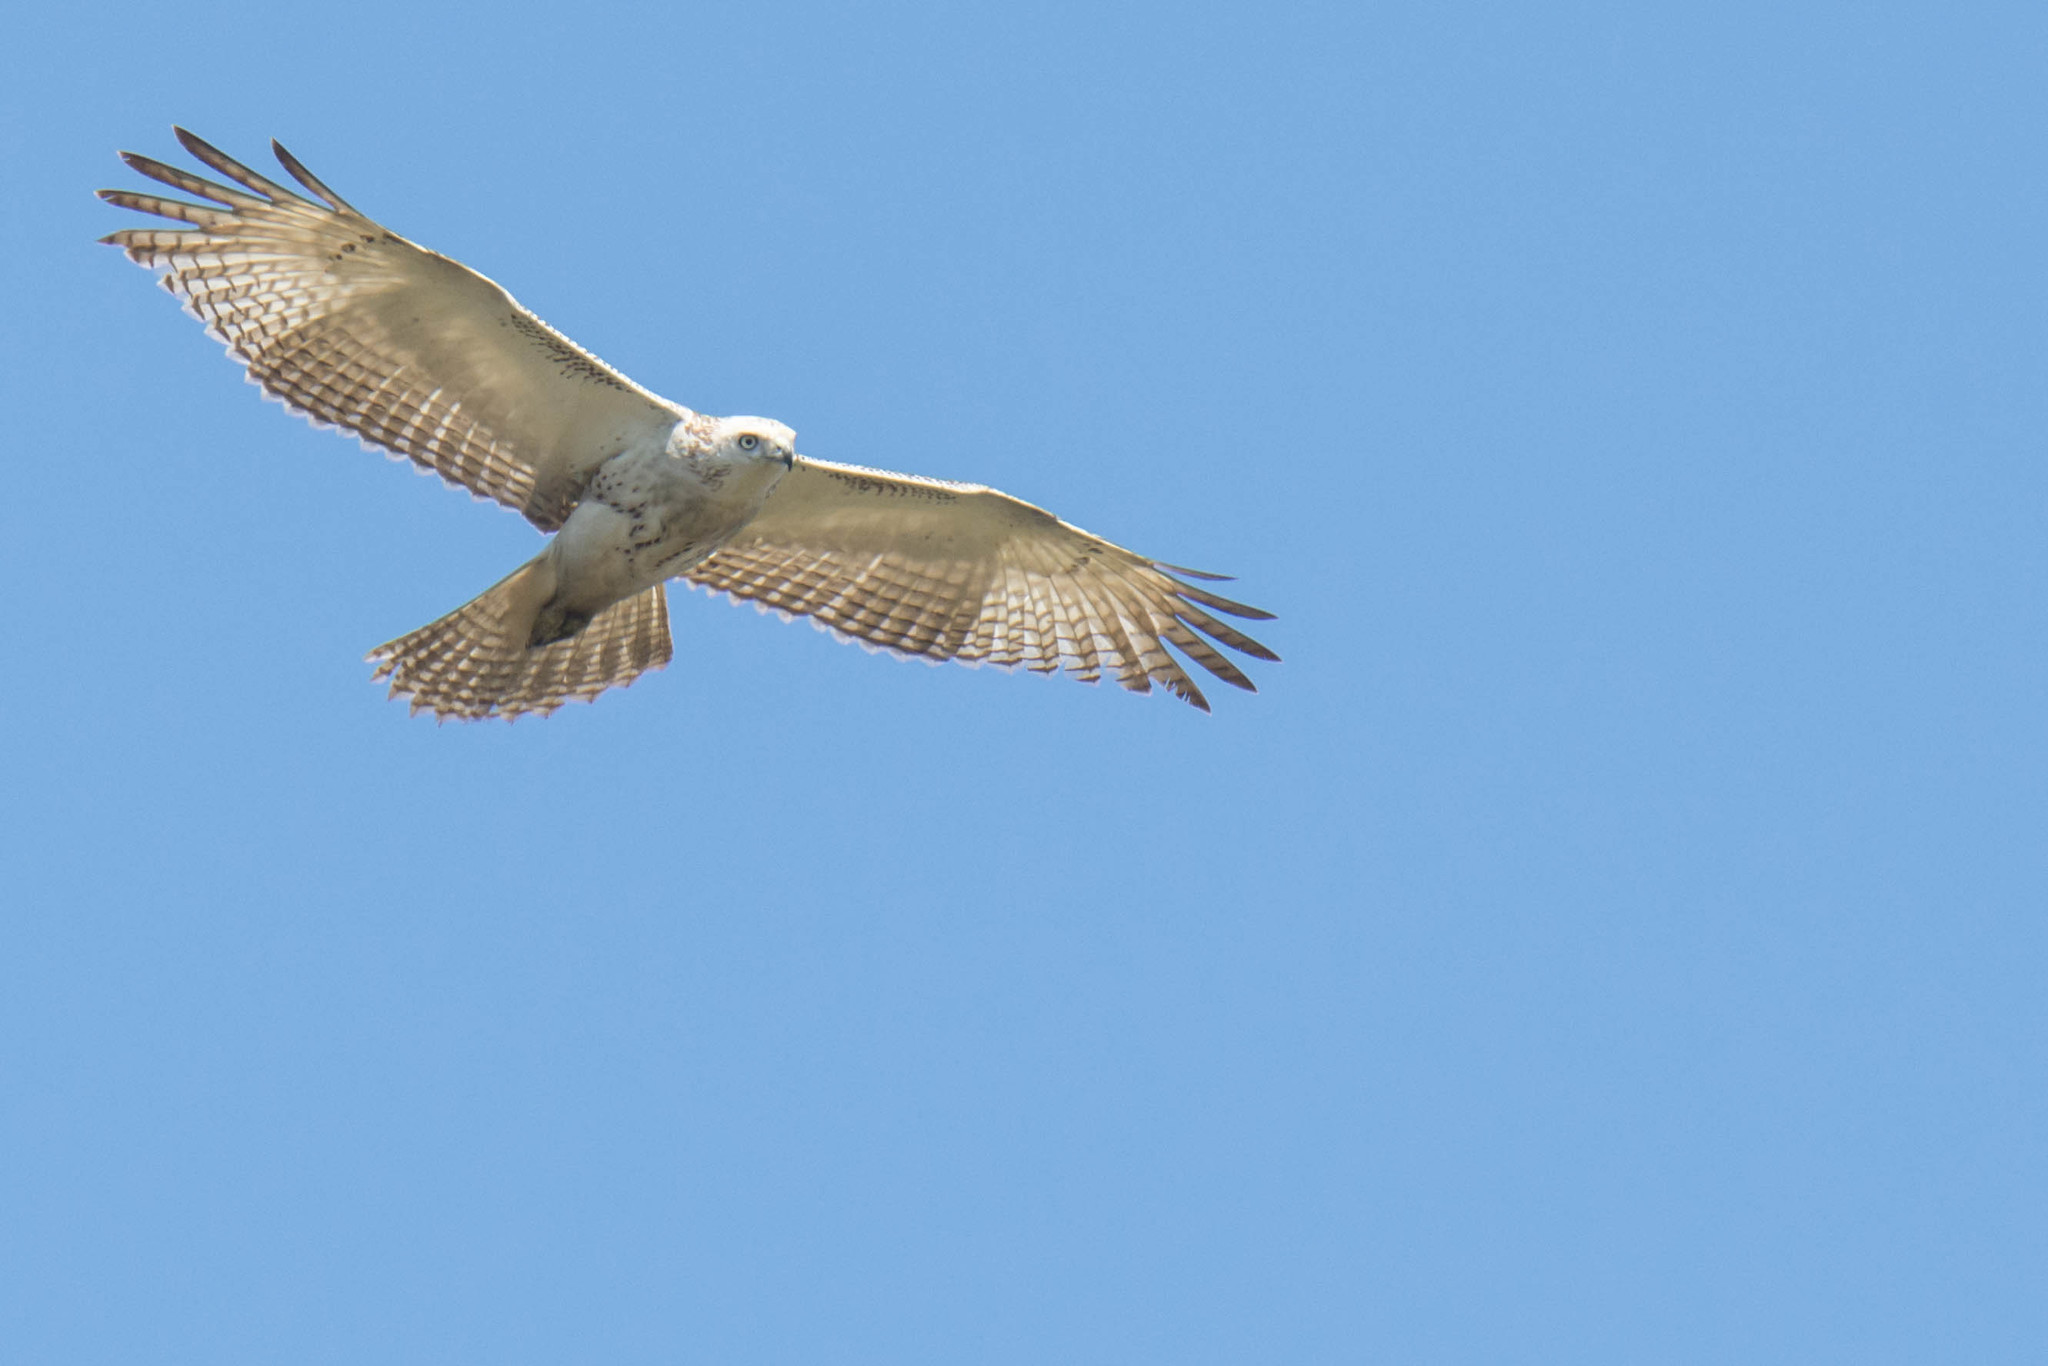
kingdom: Animalia
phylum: Chordata
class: Aves
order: Accipitriformes
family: Accipitridae
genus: Buteo
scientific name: Buteo jamaicensis
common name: Red-tailed hawk
